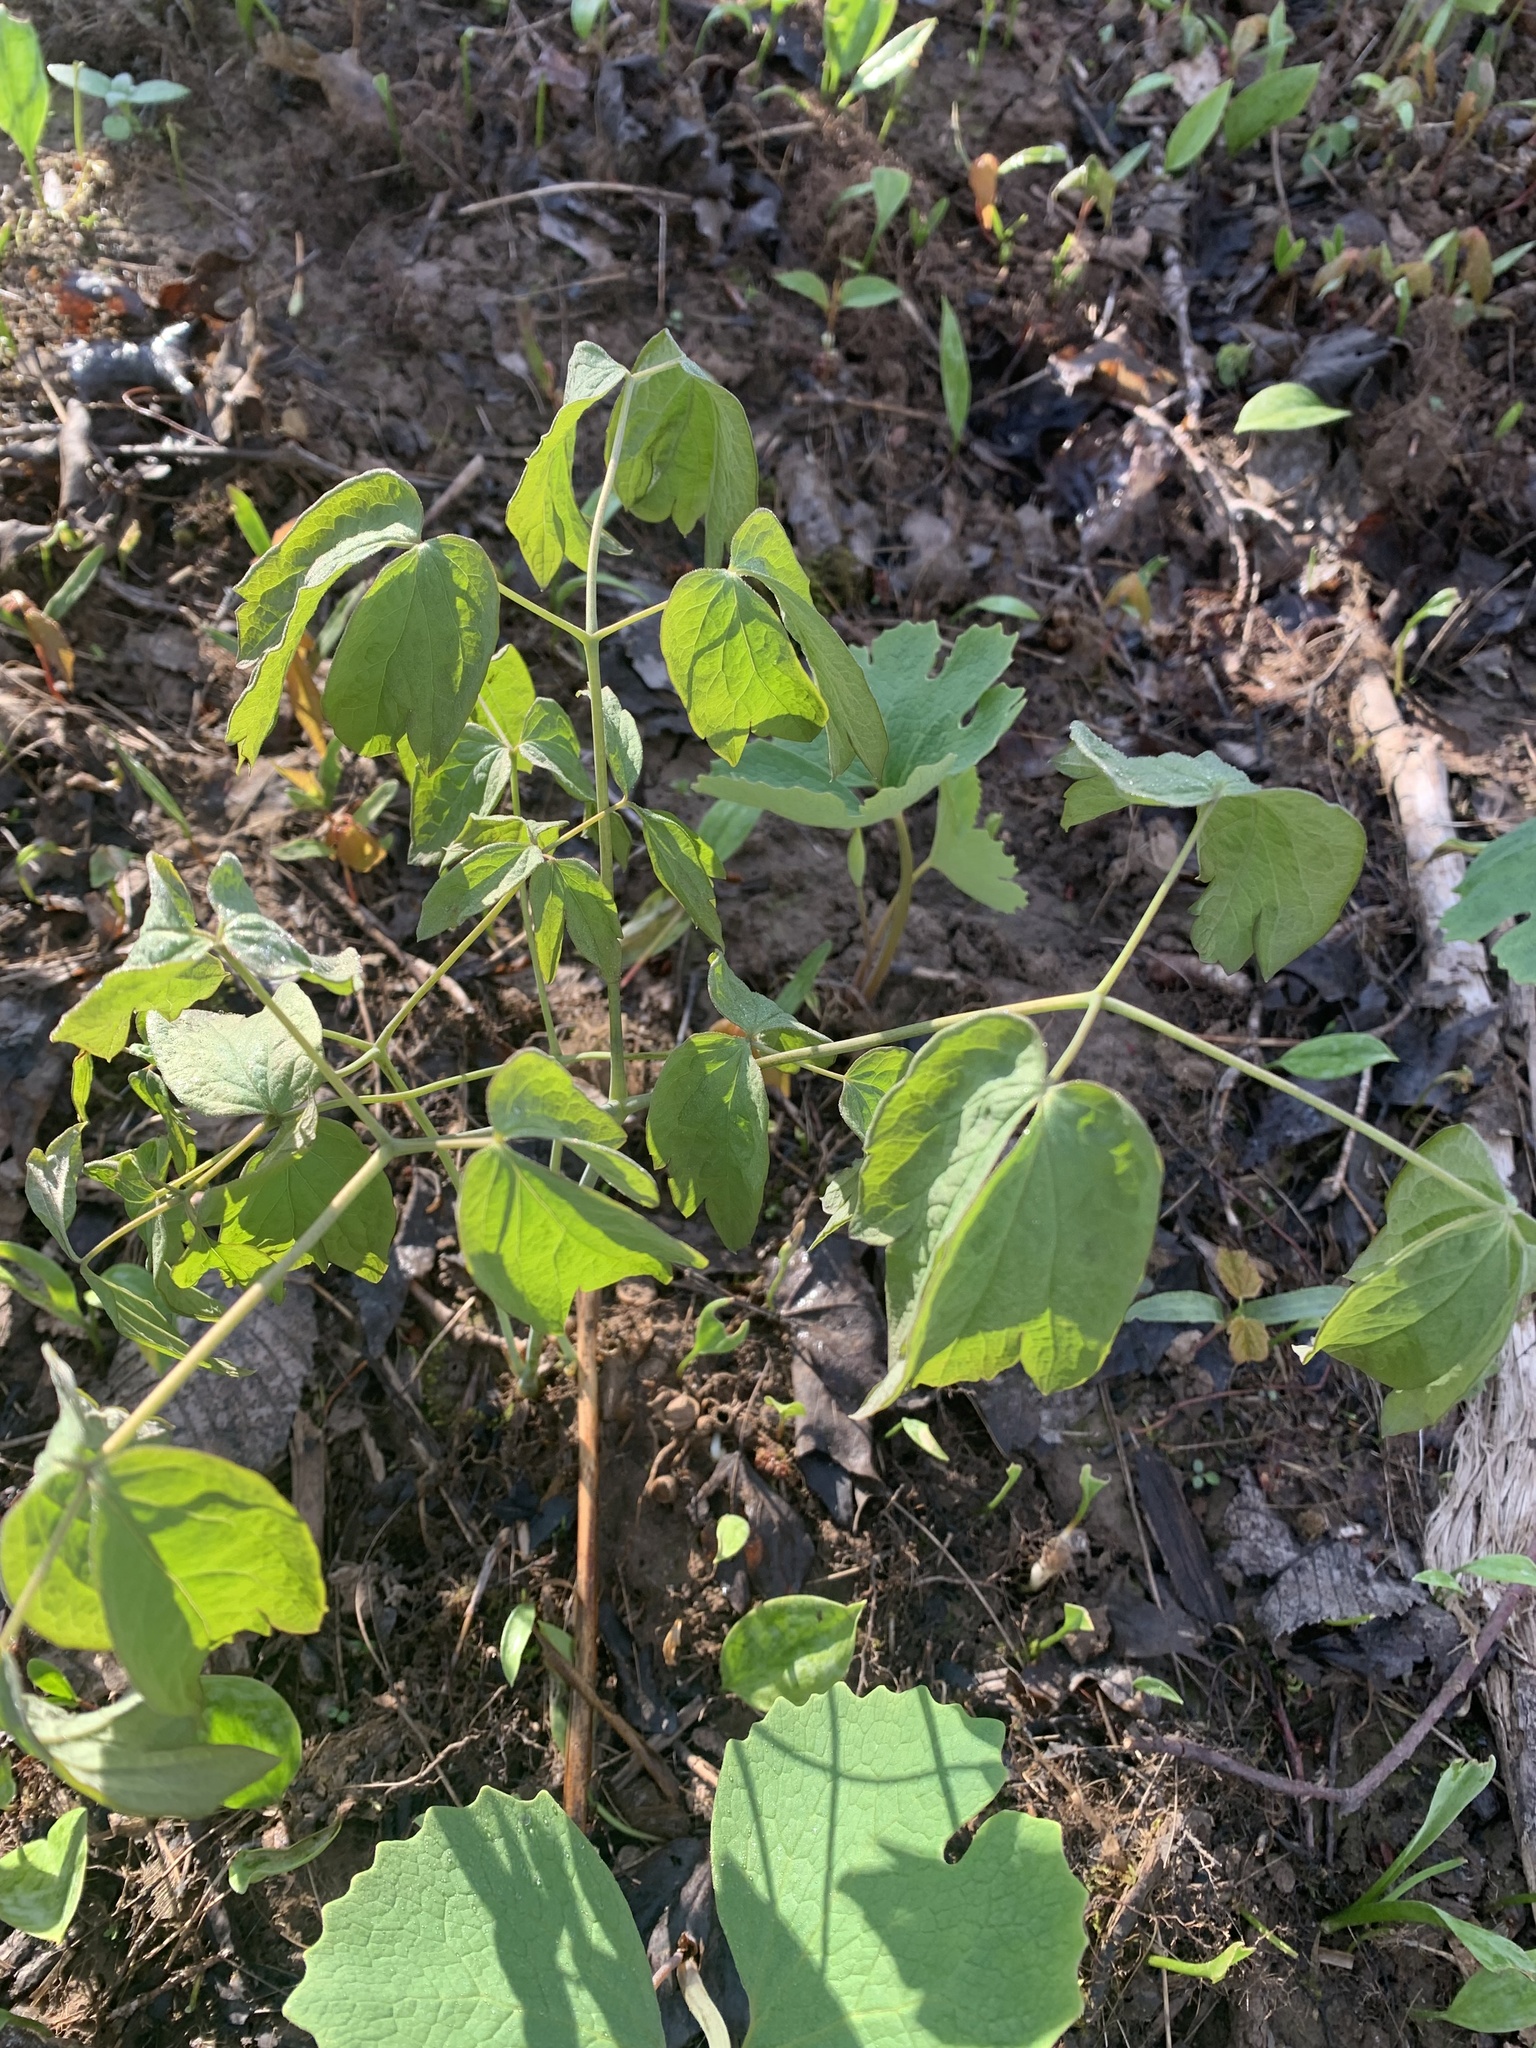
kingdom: Plantae
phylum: Tracheophyta
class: Magnoliopsida
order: Ranunculales
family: Berberidaceae
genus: Caulophyllum
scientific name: Caulophyllum thalictroides
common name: Blue cohosh
